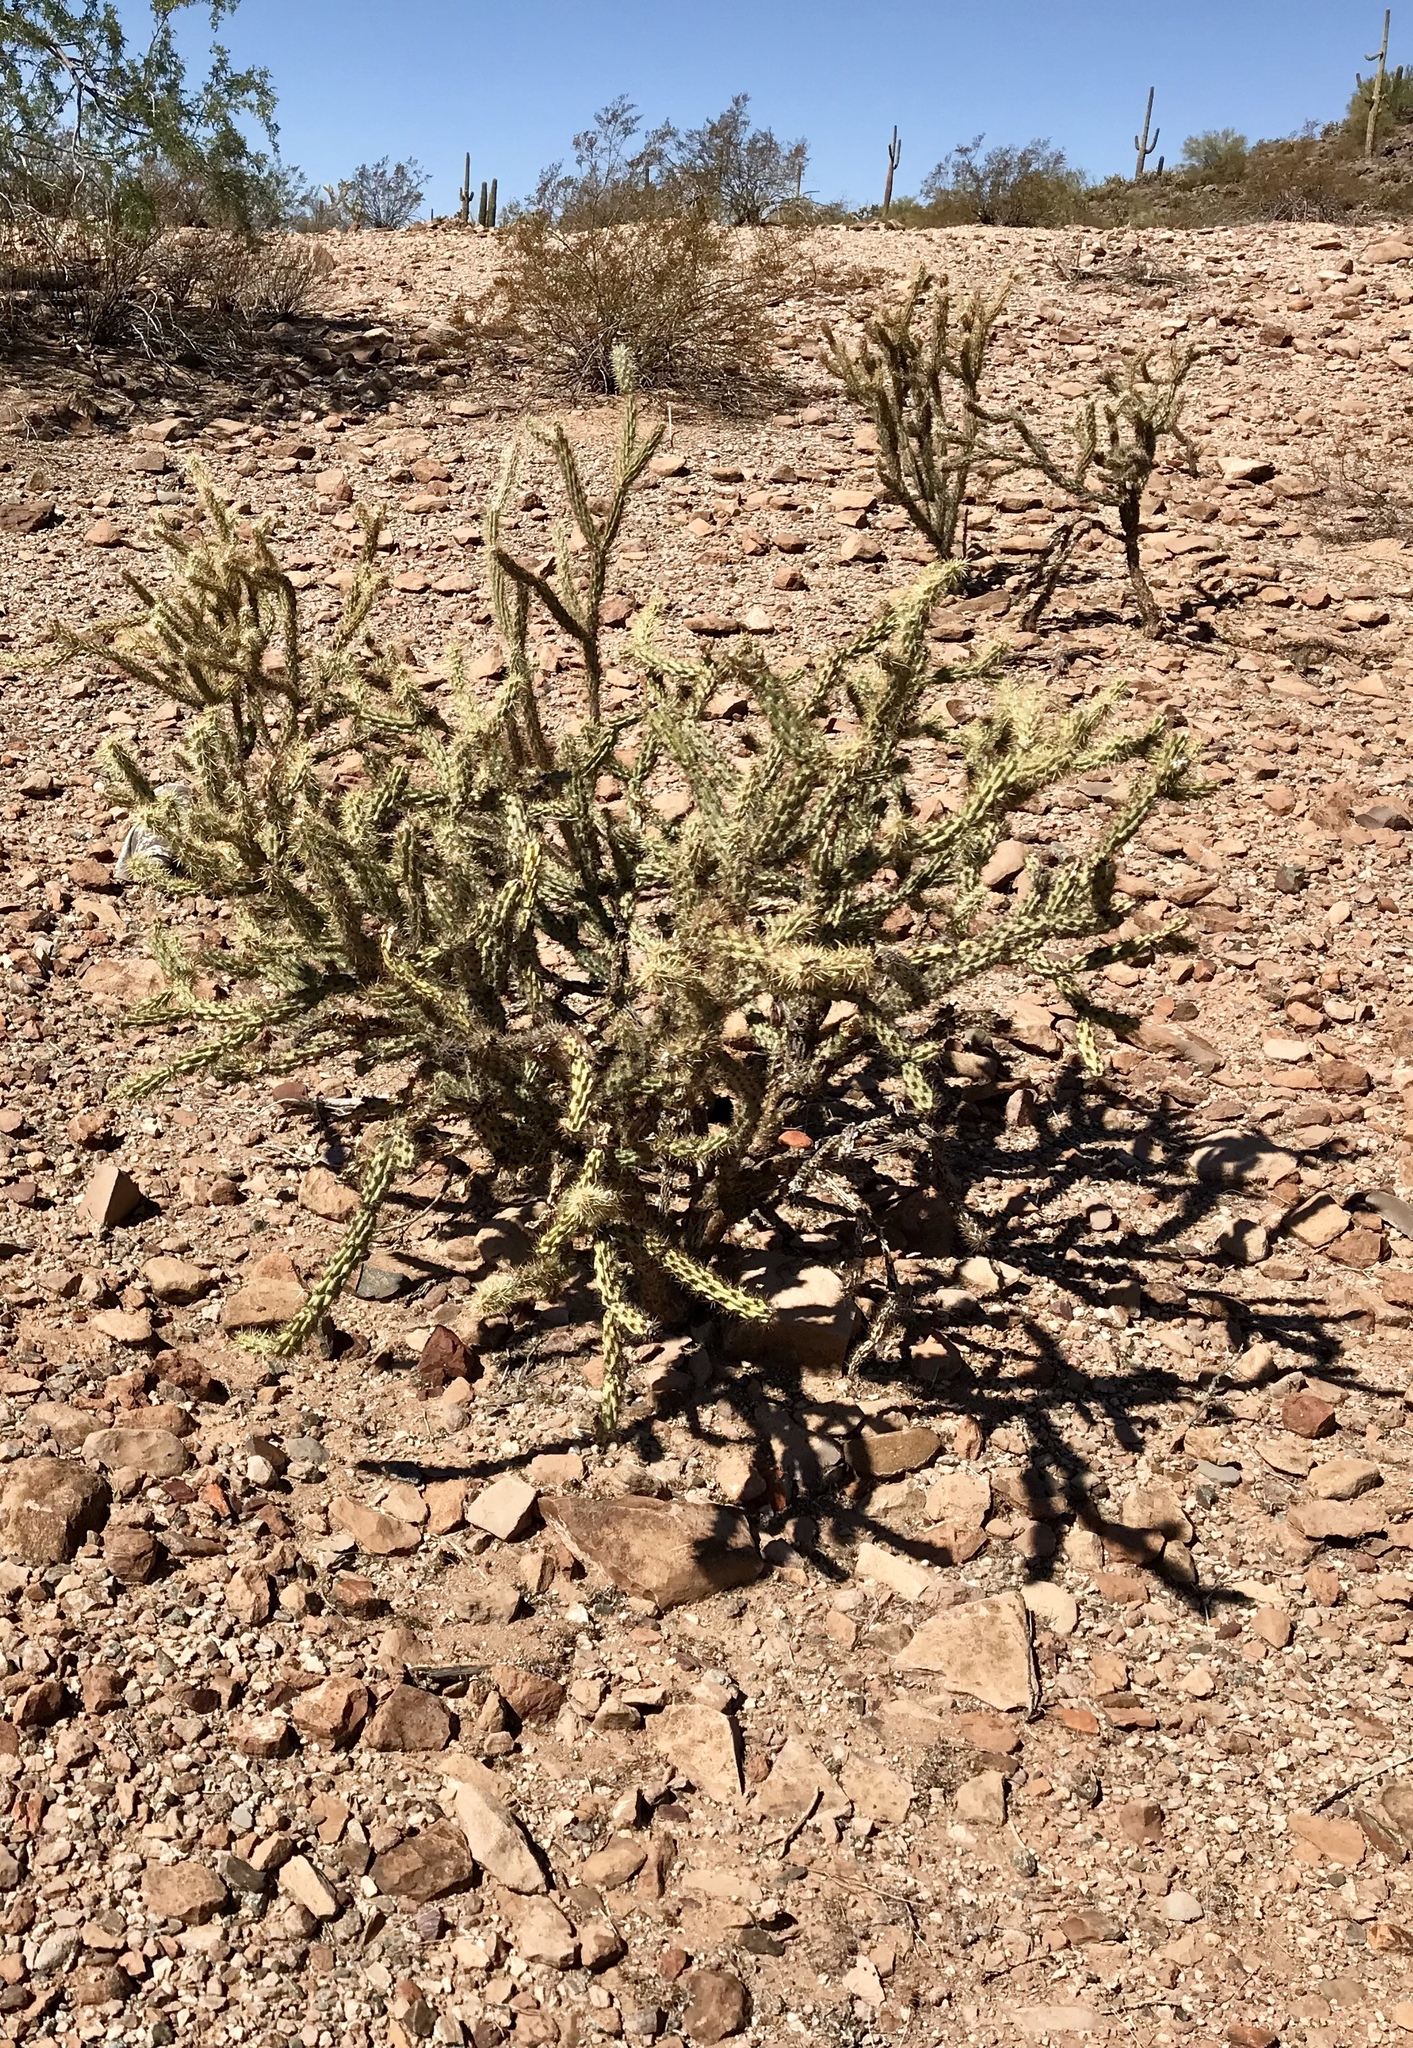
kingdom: Plantae
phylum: Tracheophyta
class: Magnoliopsida
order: Caryophyllales
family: Cactaceae
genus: Cylindropuntia
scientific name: Cylindropuntia acanthocarpa
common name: Buckhorn cholla
